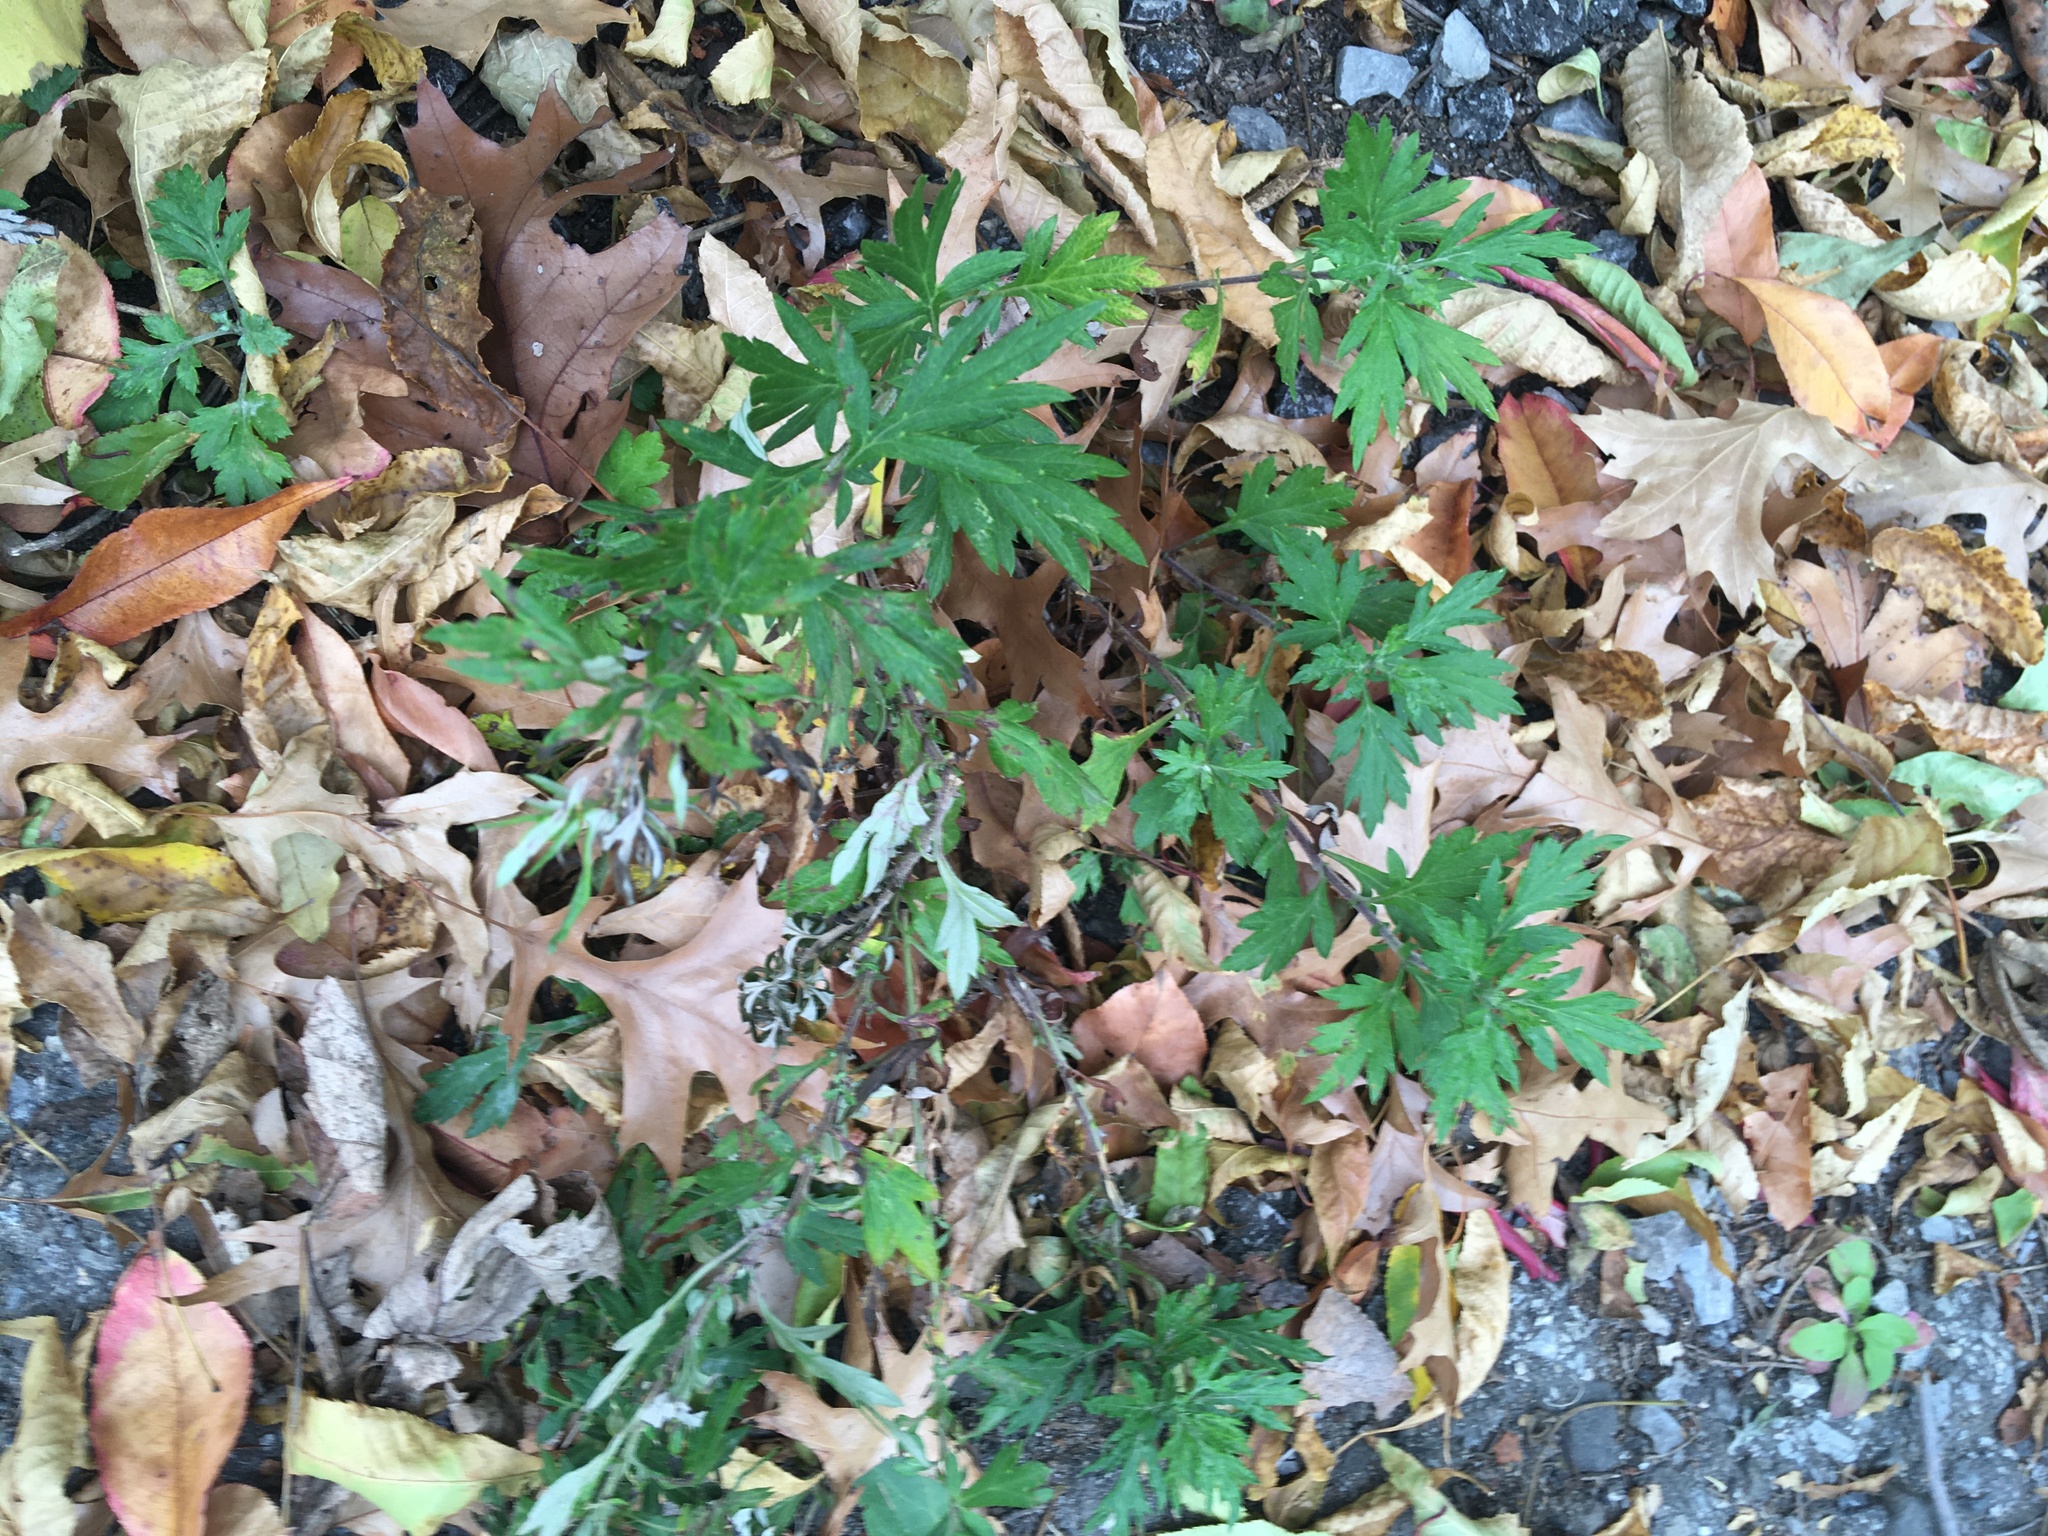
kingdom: Plantae
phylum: Tracheophyta
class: Magnoliopsida
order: Asterales
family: Asteraceae
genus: Artemisia
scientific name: Artemisia vulgaris
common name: Mugwort
